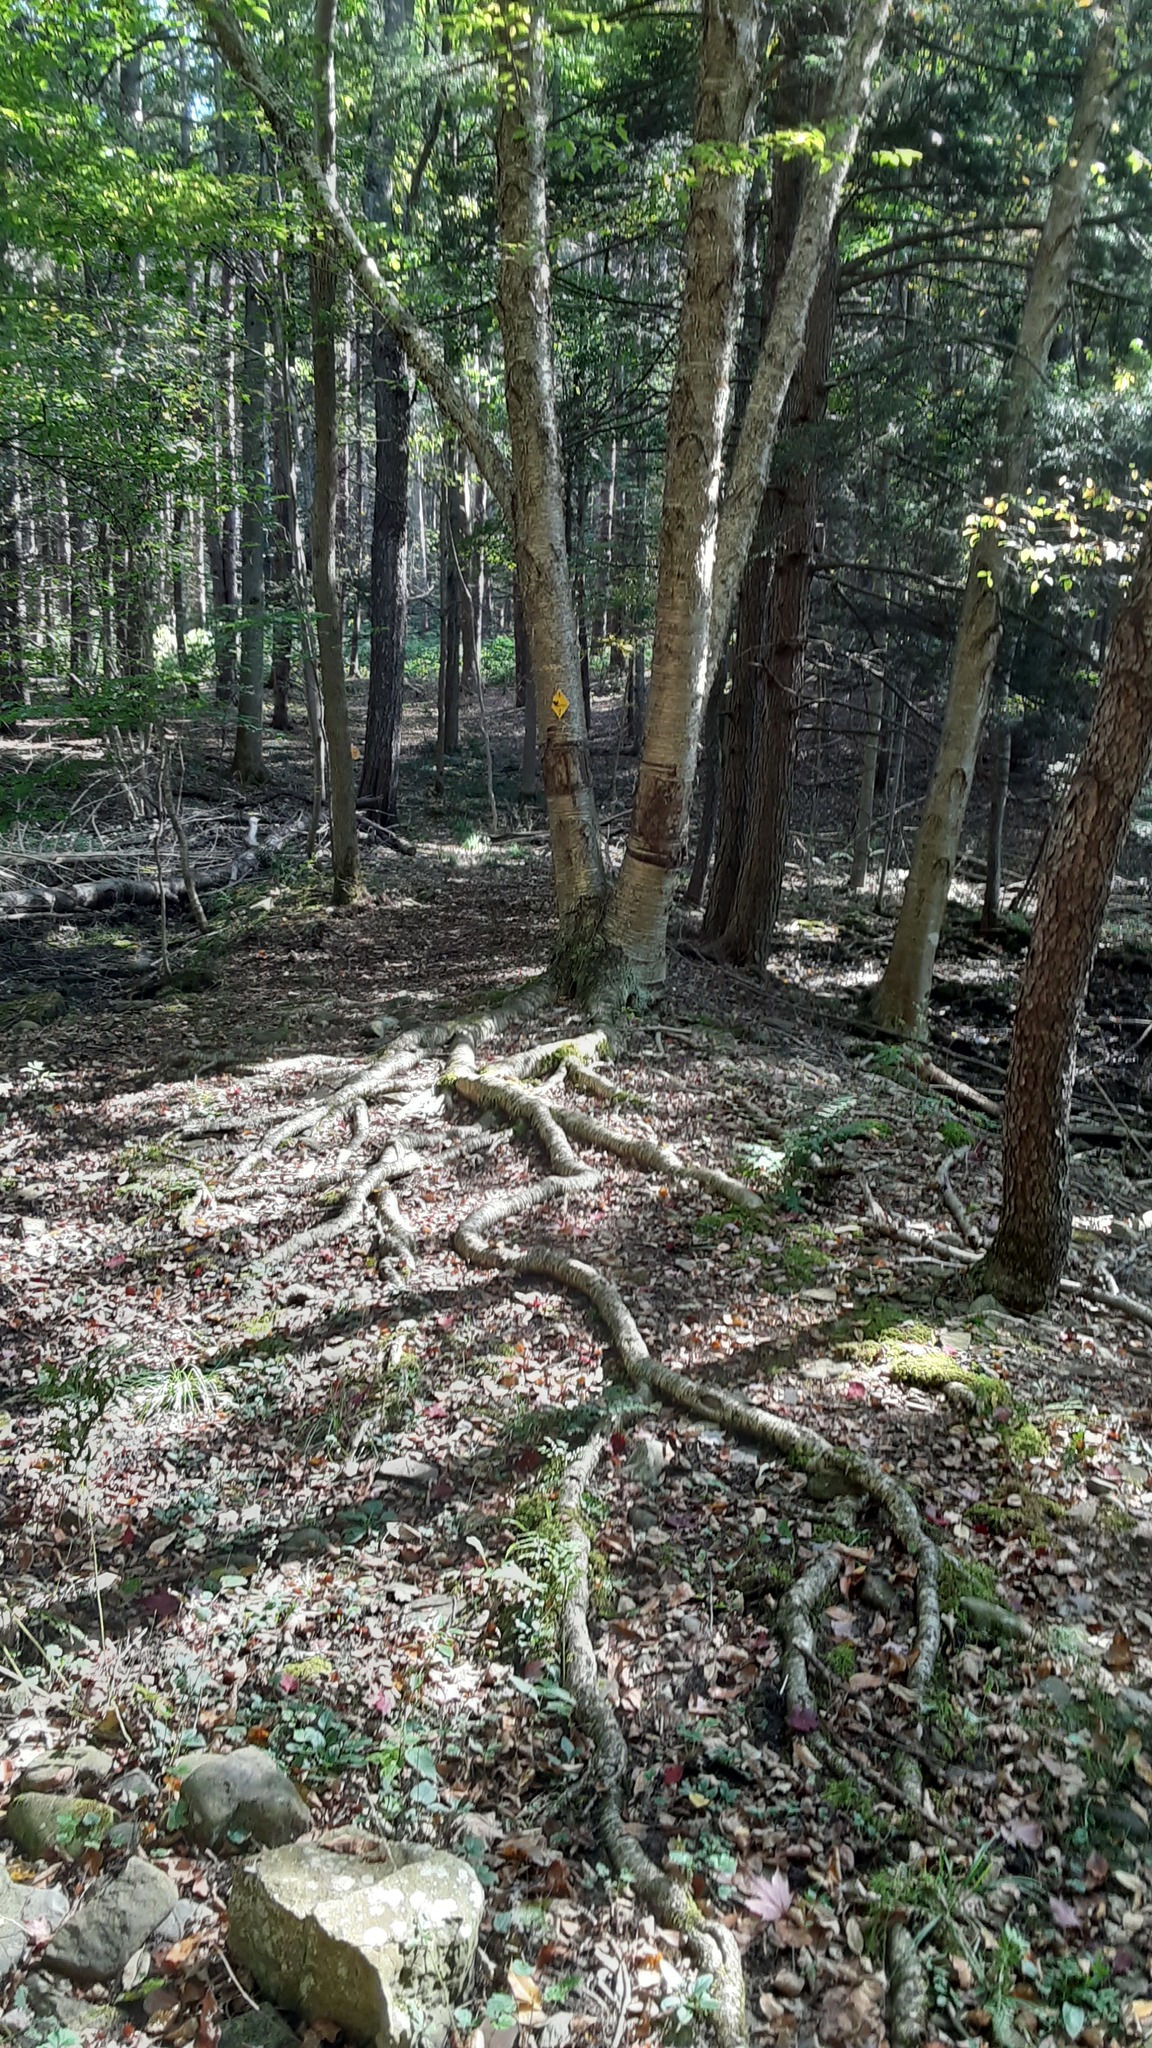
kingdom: Plantae
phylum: Tracheophyta
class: Magnoliopsida
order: Fagales
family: Betulaceae
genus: Betula
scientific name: Betula alleghaniensis
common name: Yellow birch
